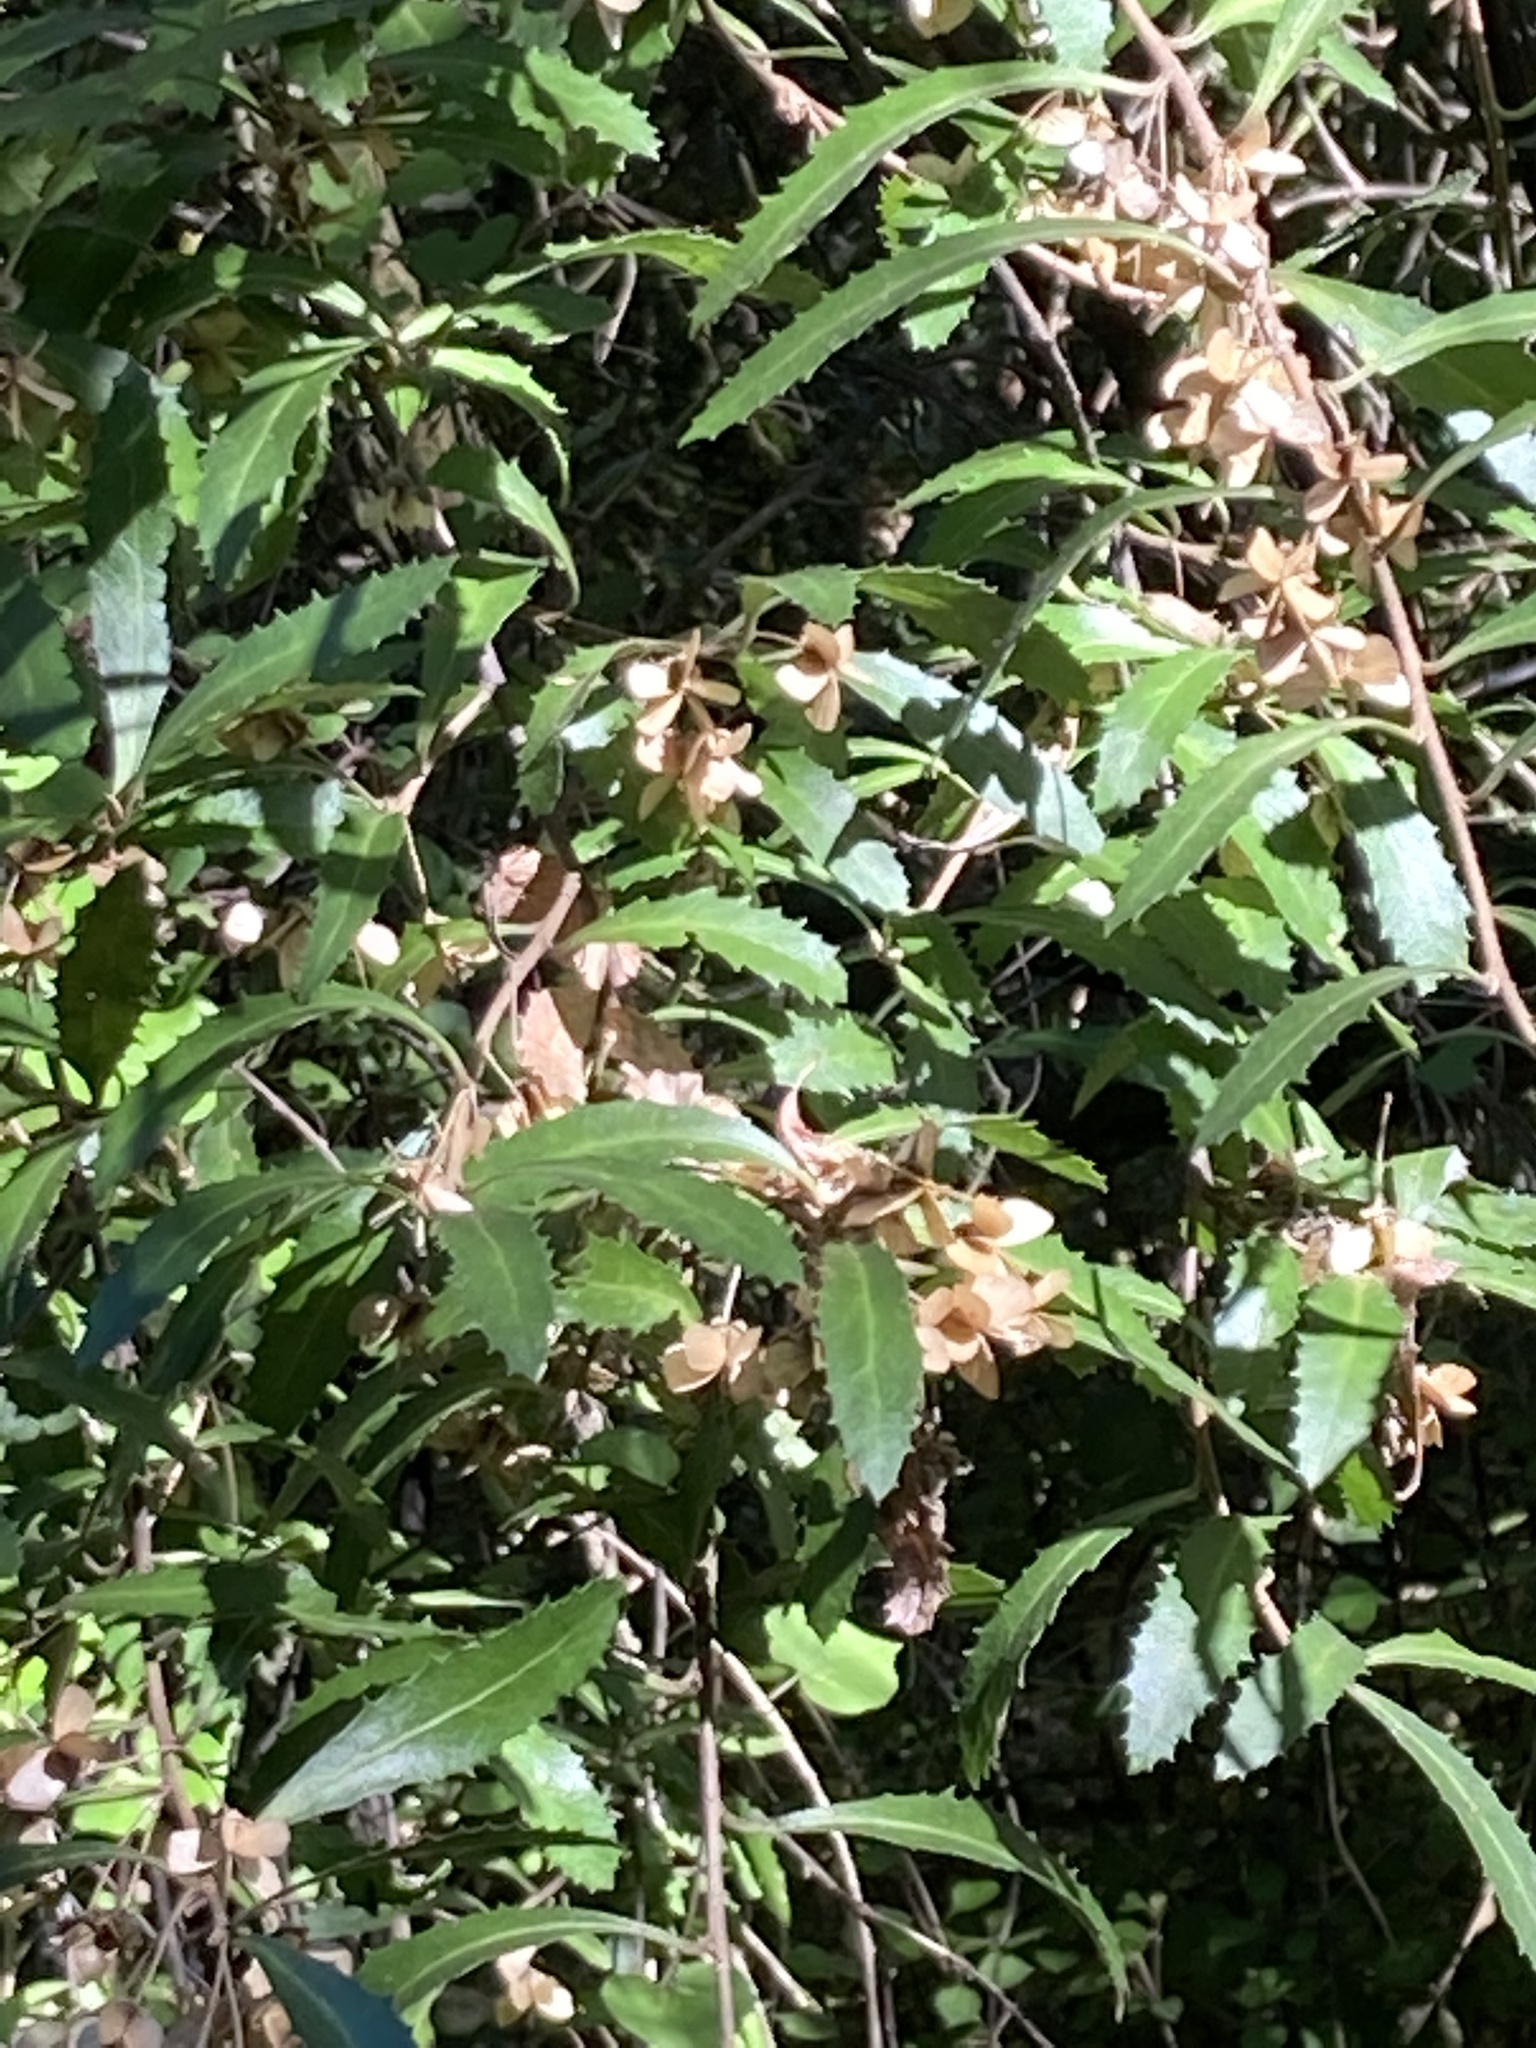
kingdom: Plantae
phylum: Tracheophyta
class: Magnoliopsida
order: Malvales
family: Malvaceae
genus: Hoheria
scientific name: Hoheria angustifolia
